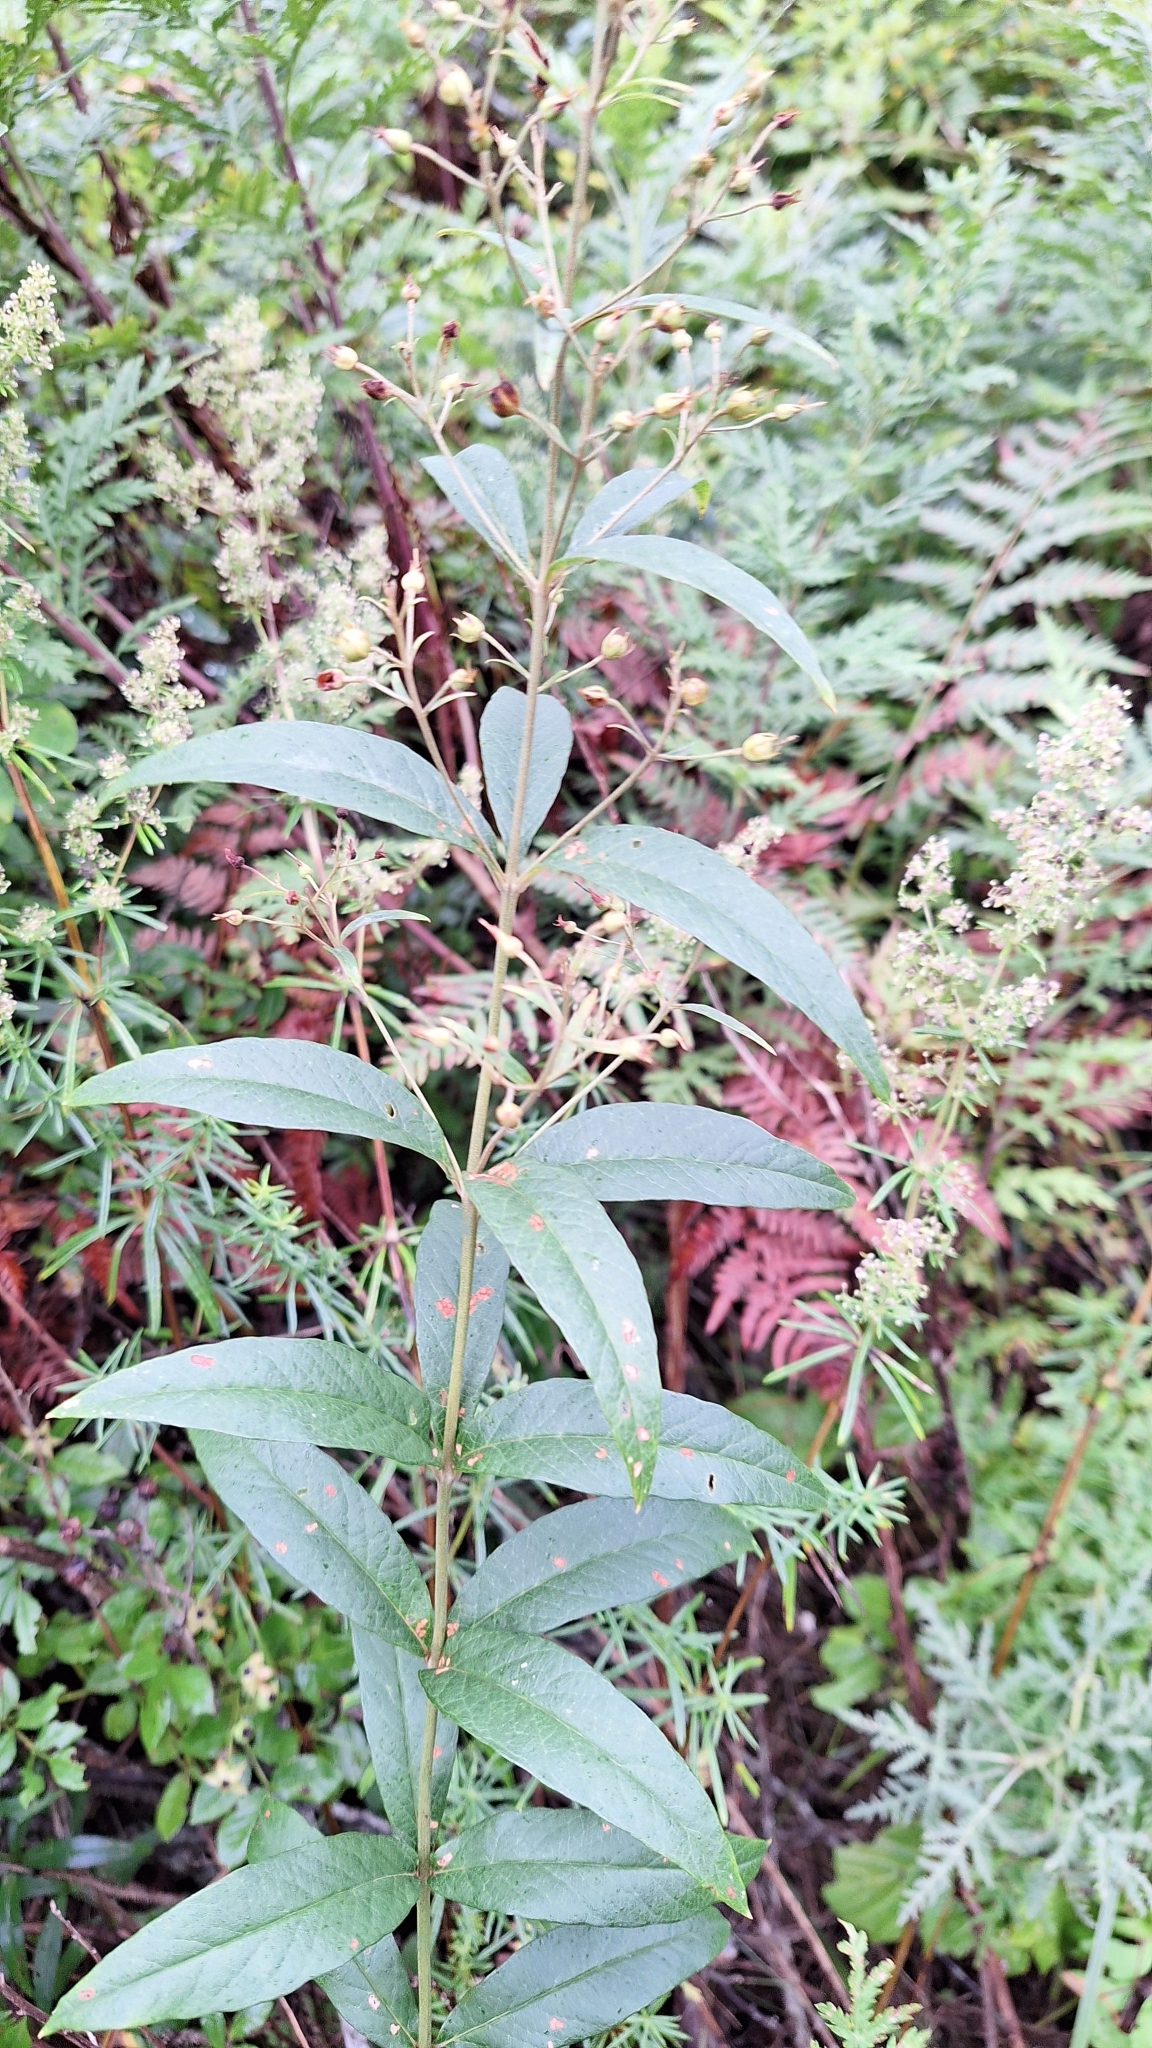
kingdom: Plantae
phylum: Tracheophyta
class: Magnoliopsida
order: Ericales
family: Primulaceae
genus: Lysimachia
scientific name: Lysimachia davurica
